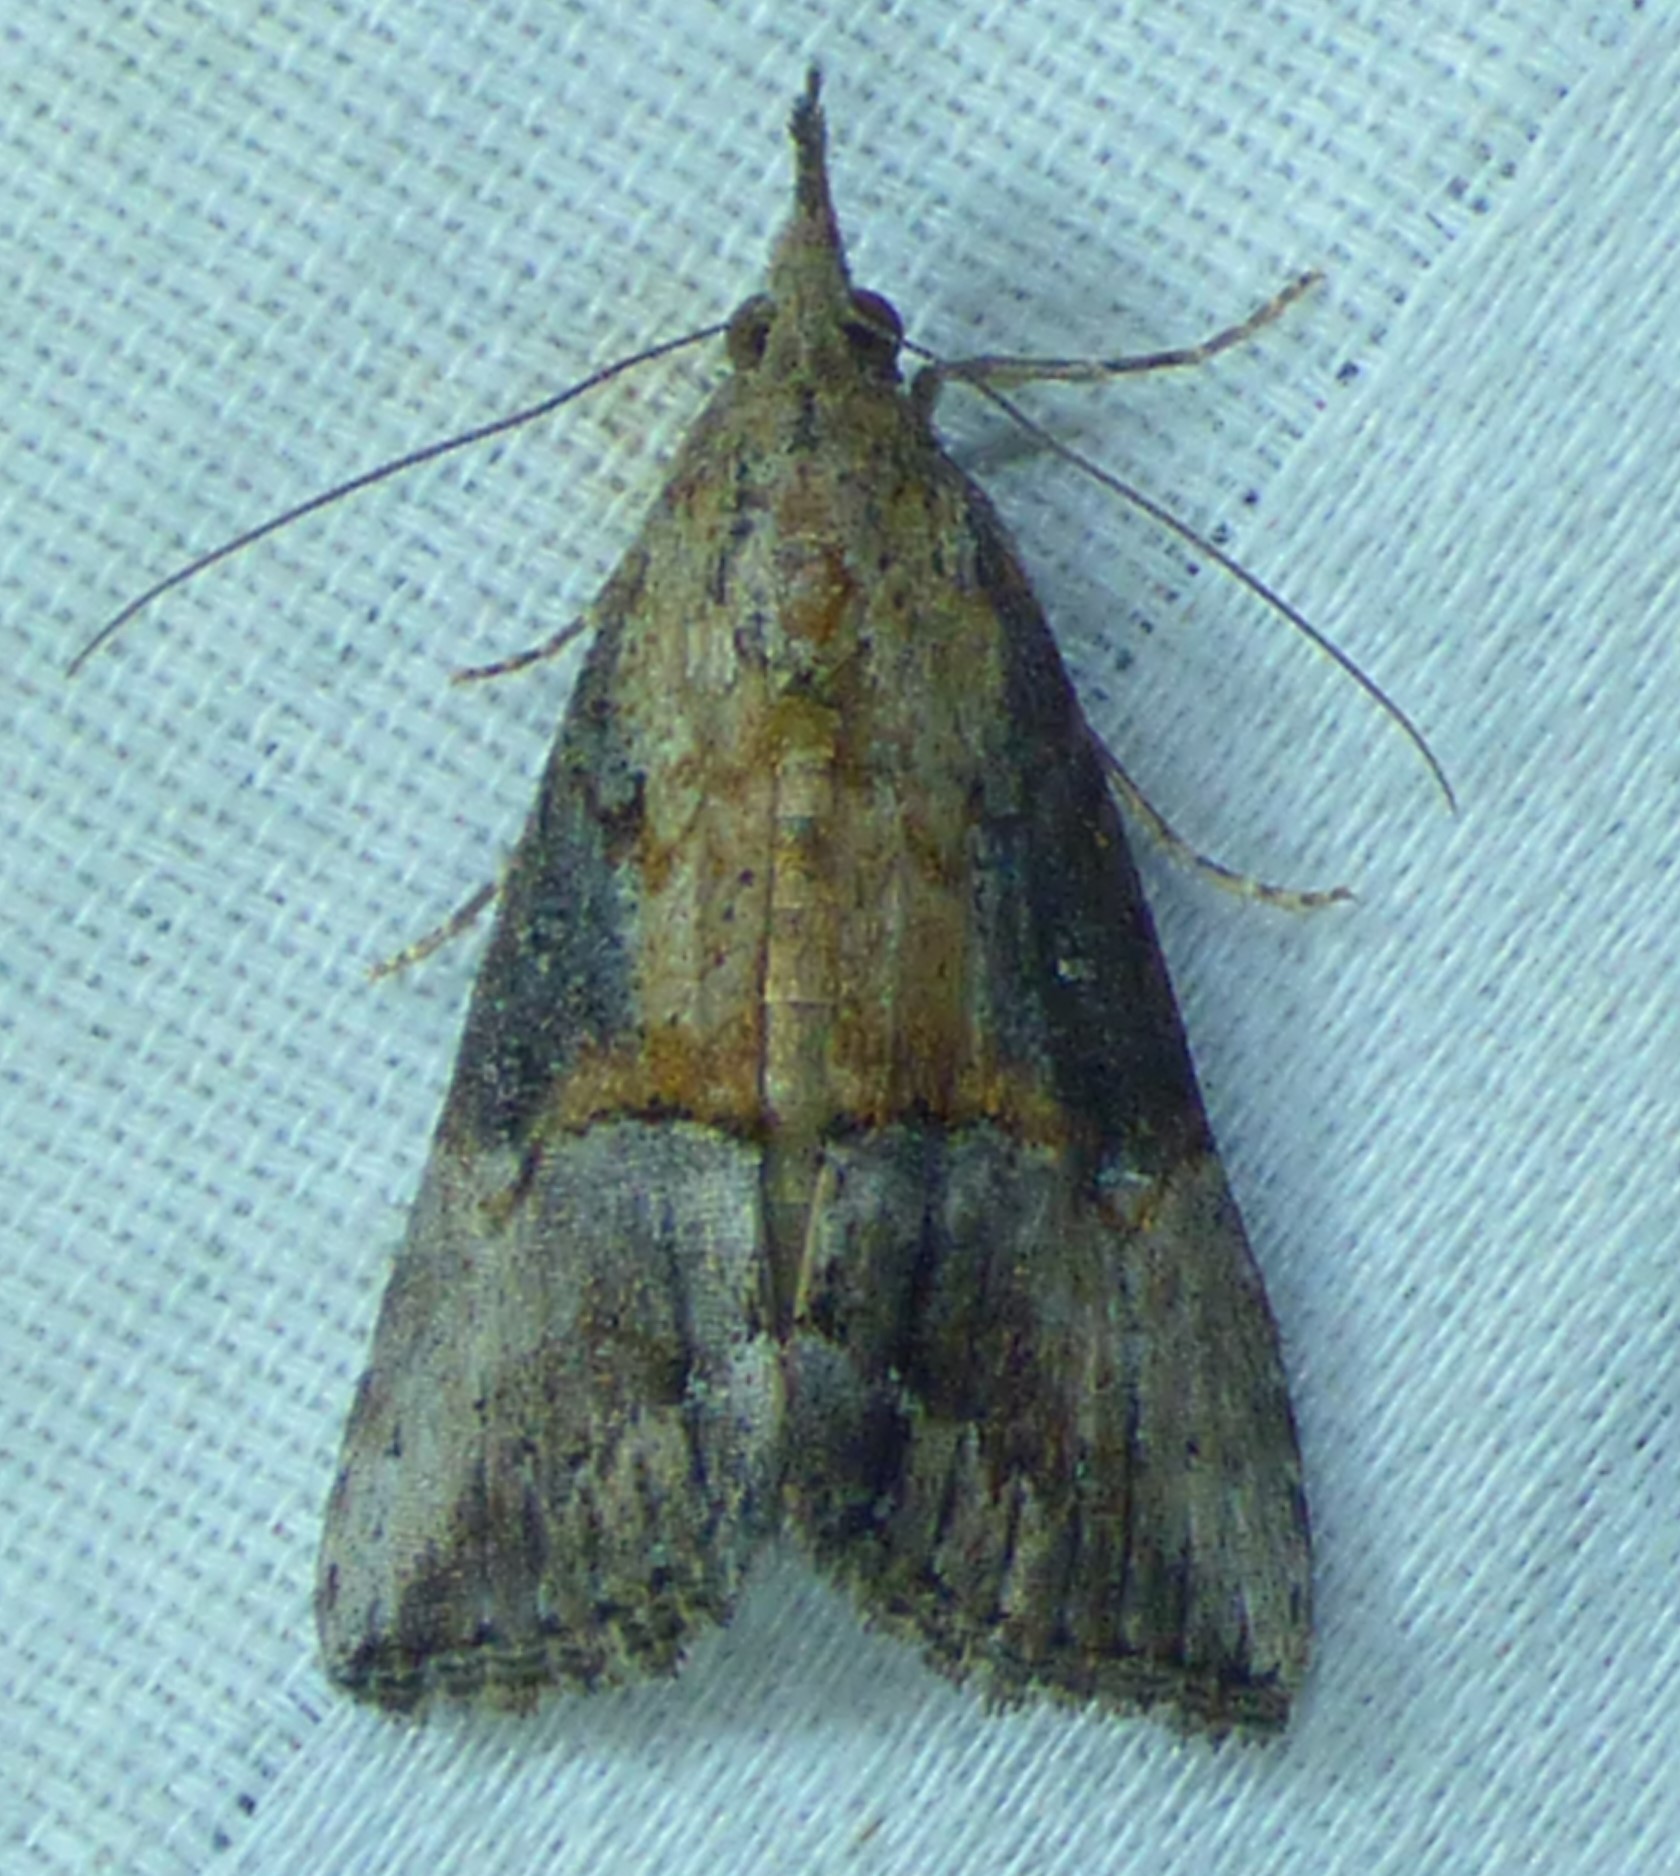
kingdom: Animalia
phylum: Arthropoda
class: Insecta
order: Lepidoptera
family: Erebidae
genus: Hypena
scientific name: Hypena scabra
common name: Green cloverworm
